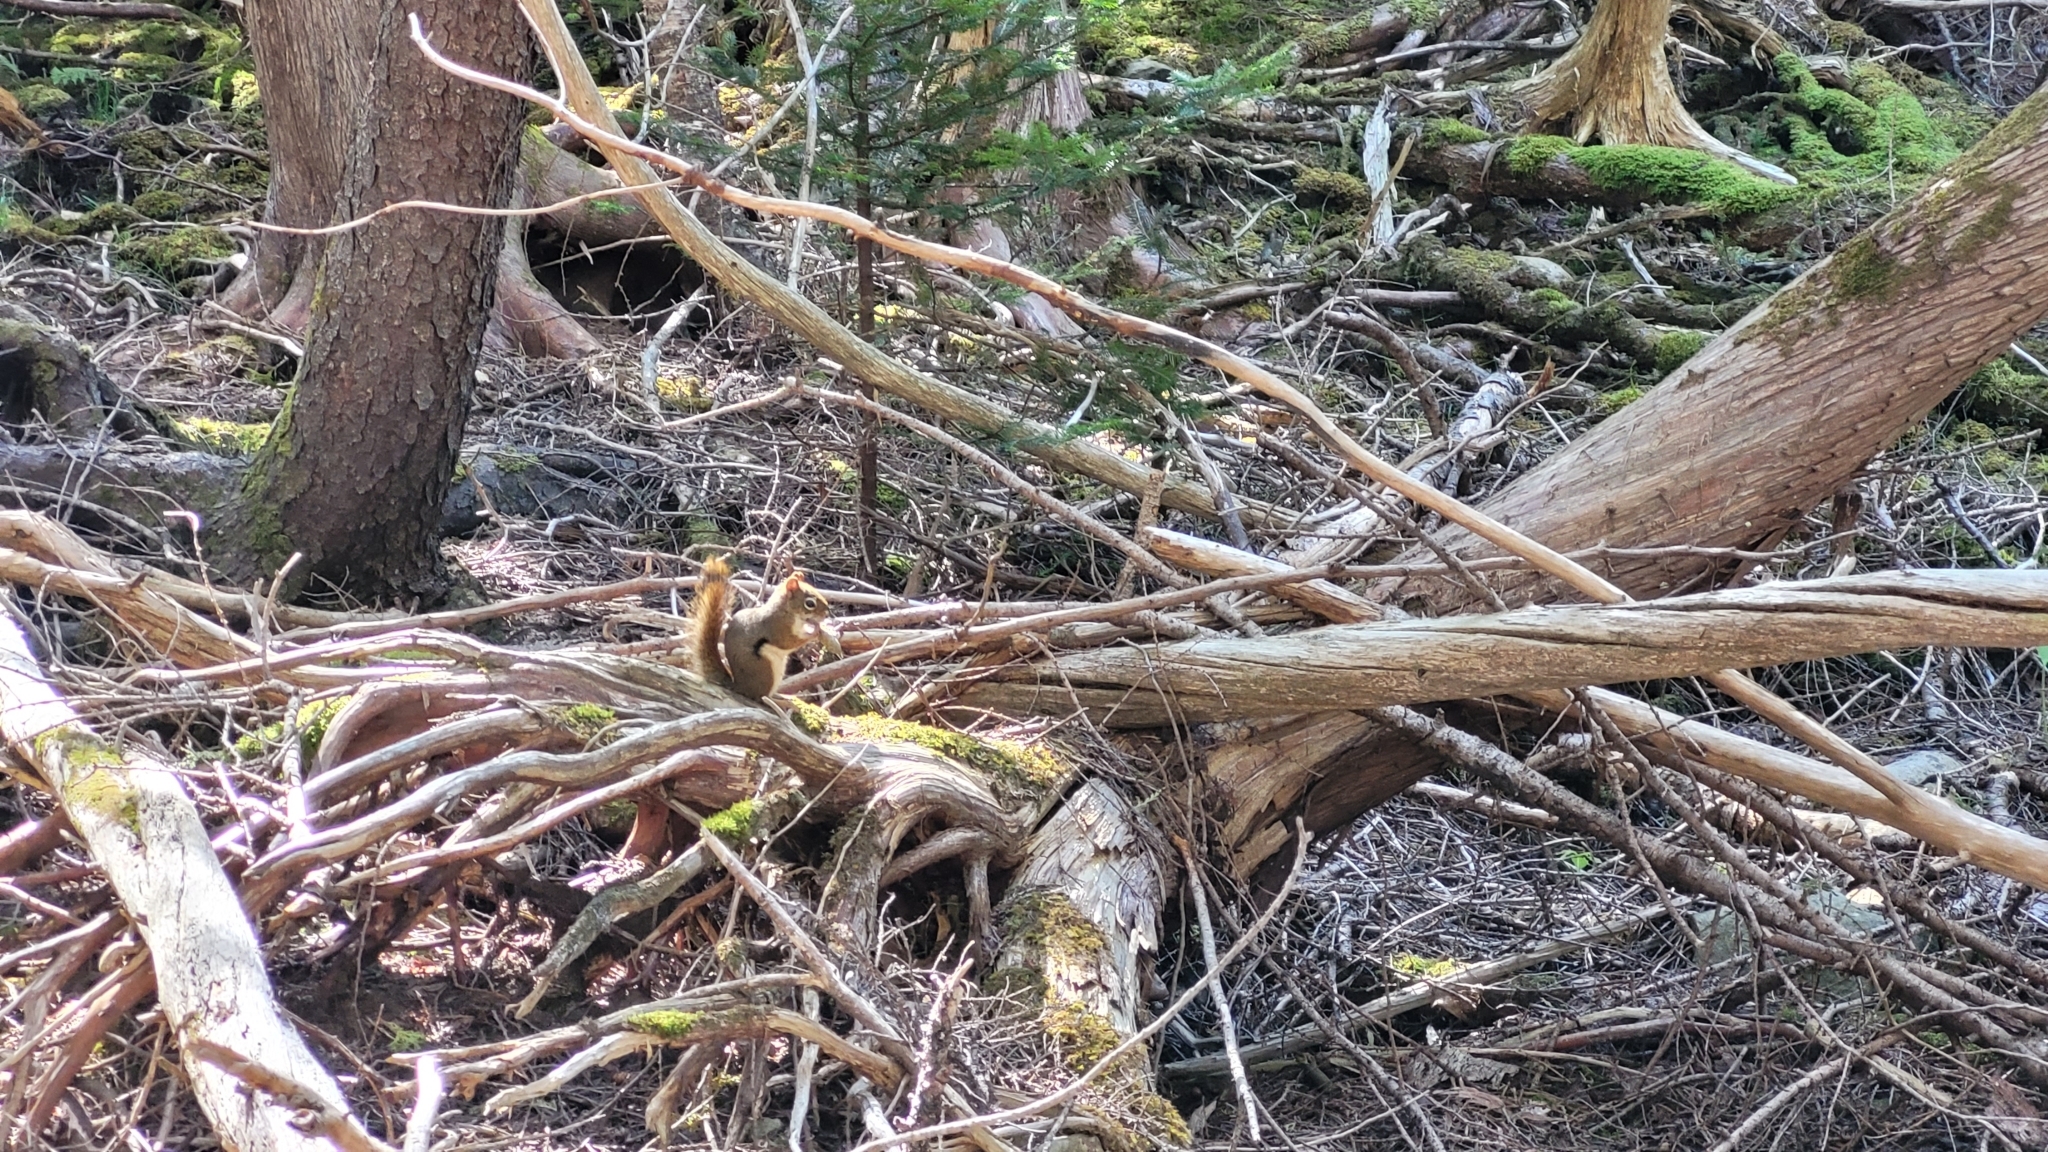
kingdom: Animalia
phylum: Chordata
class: Mammalia
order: Rodentia
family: Sciuridae
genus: Tamiasciurus
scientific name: Tamiasciurus hudsonicus
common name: Red squirrel
